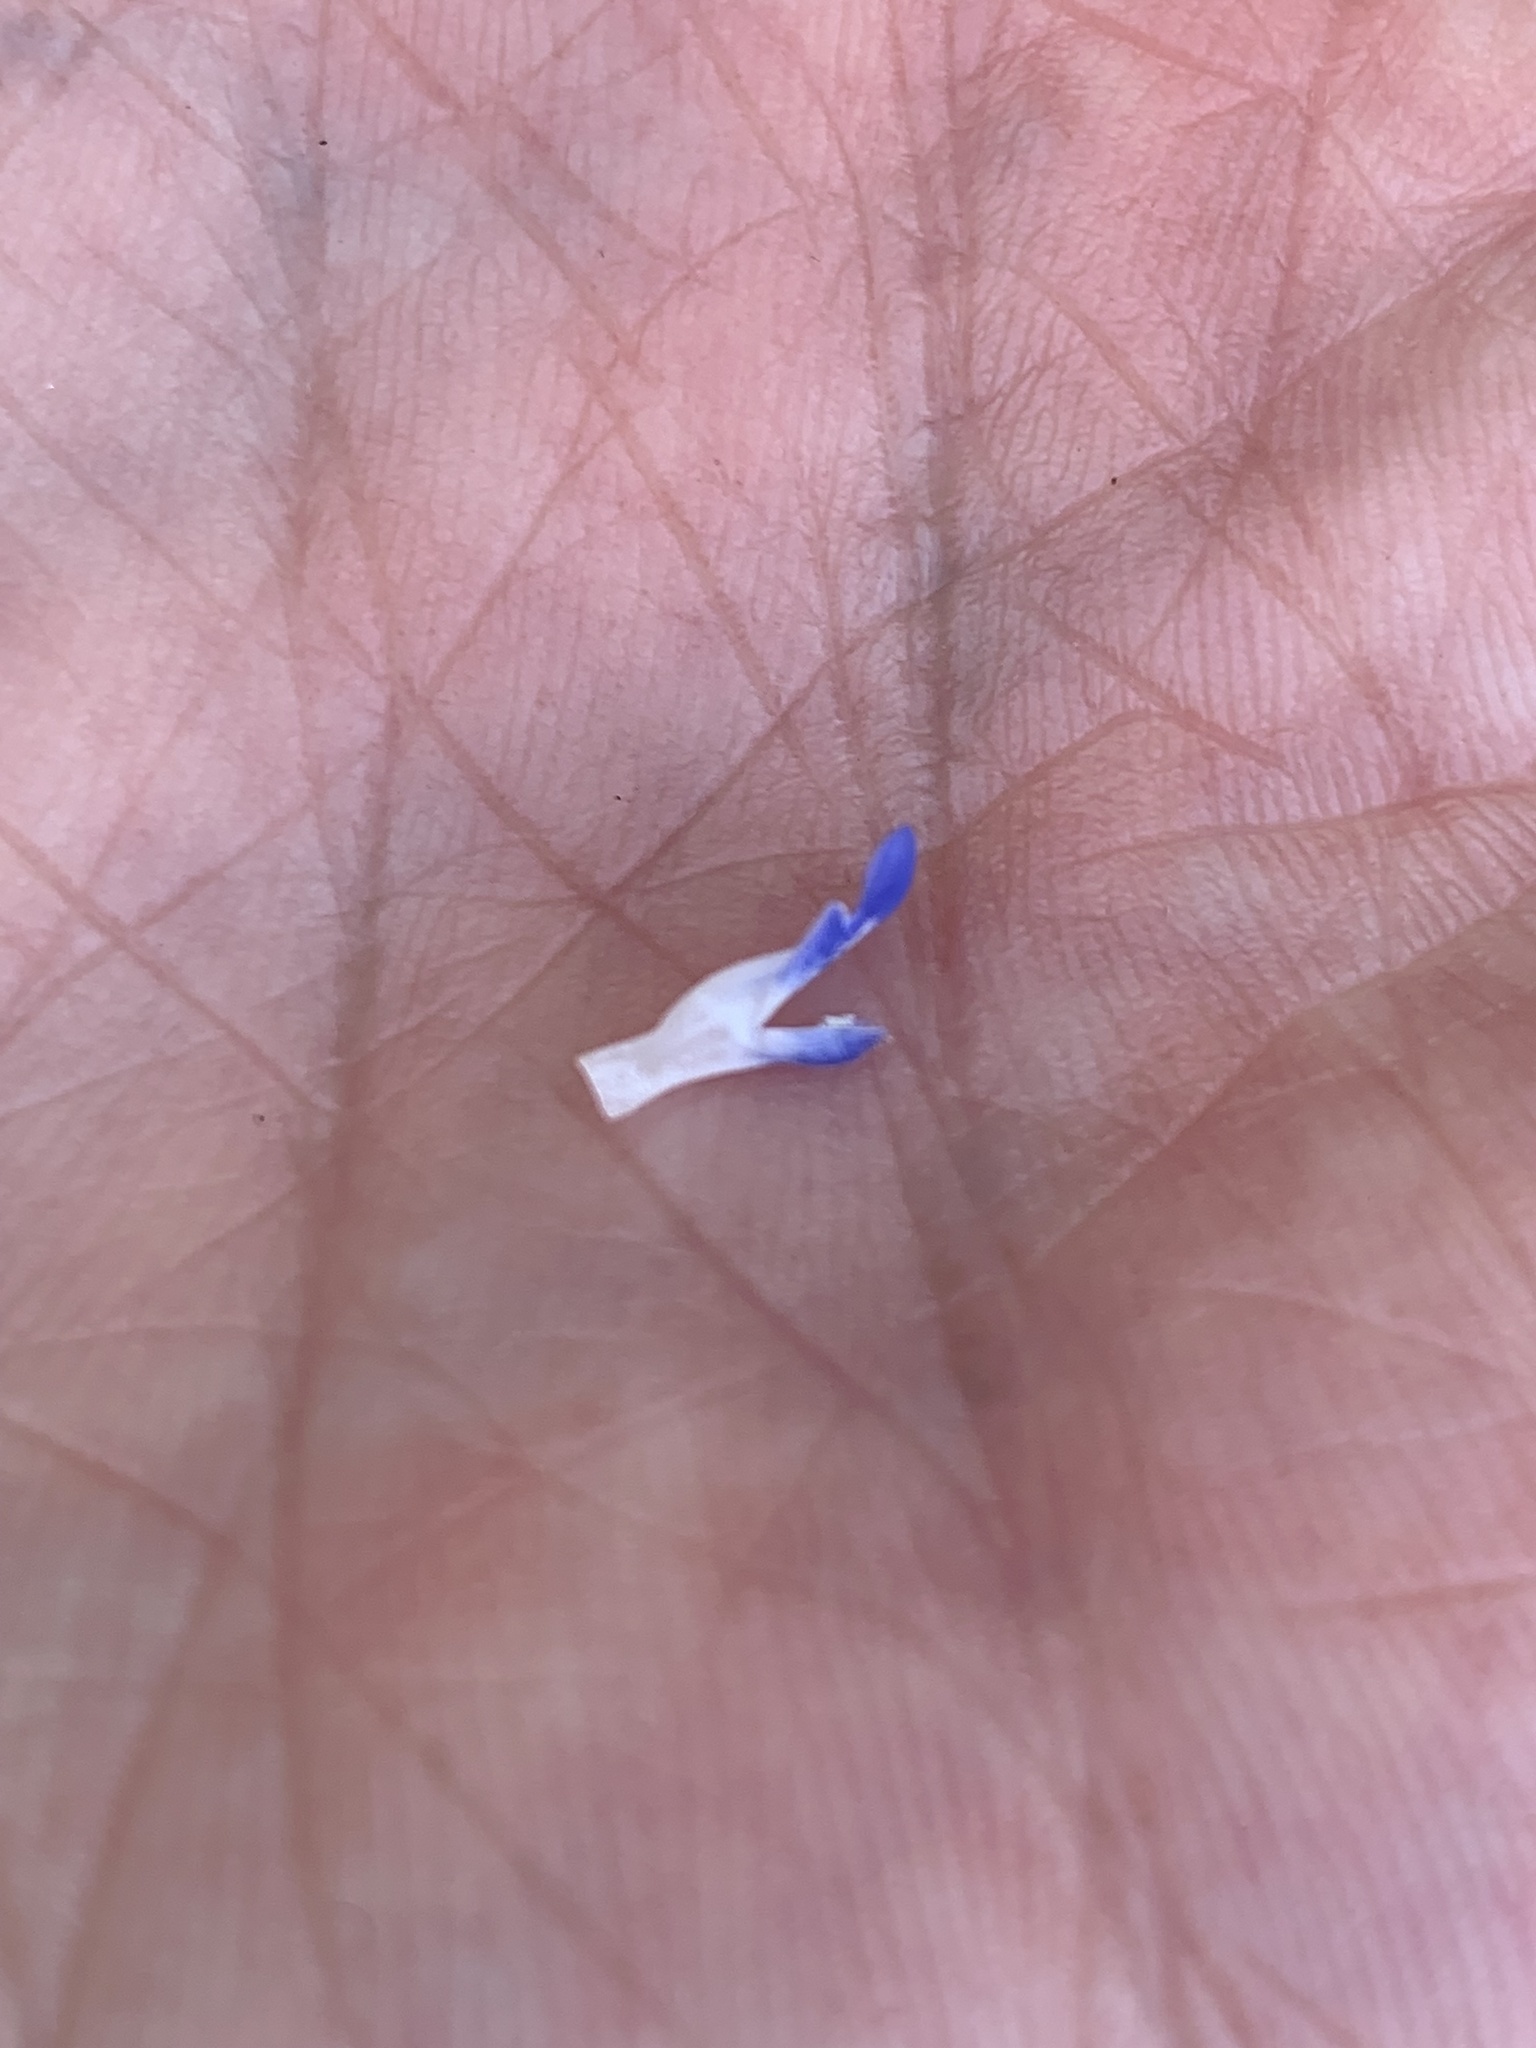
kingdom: Plantae
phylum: Tracheophyta
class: Magnoliopsida
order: Lamiales
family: Lamiaceae
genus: Salvia
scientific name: Salvia misella
